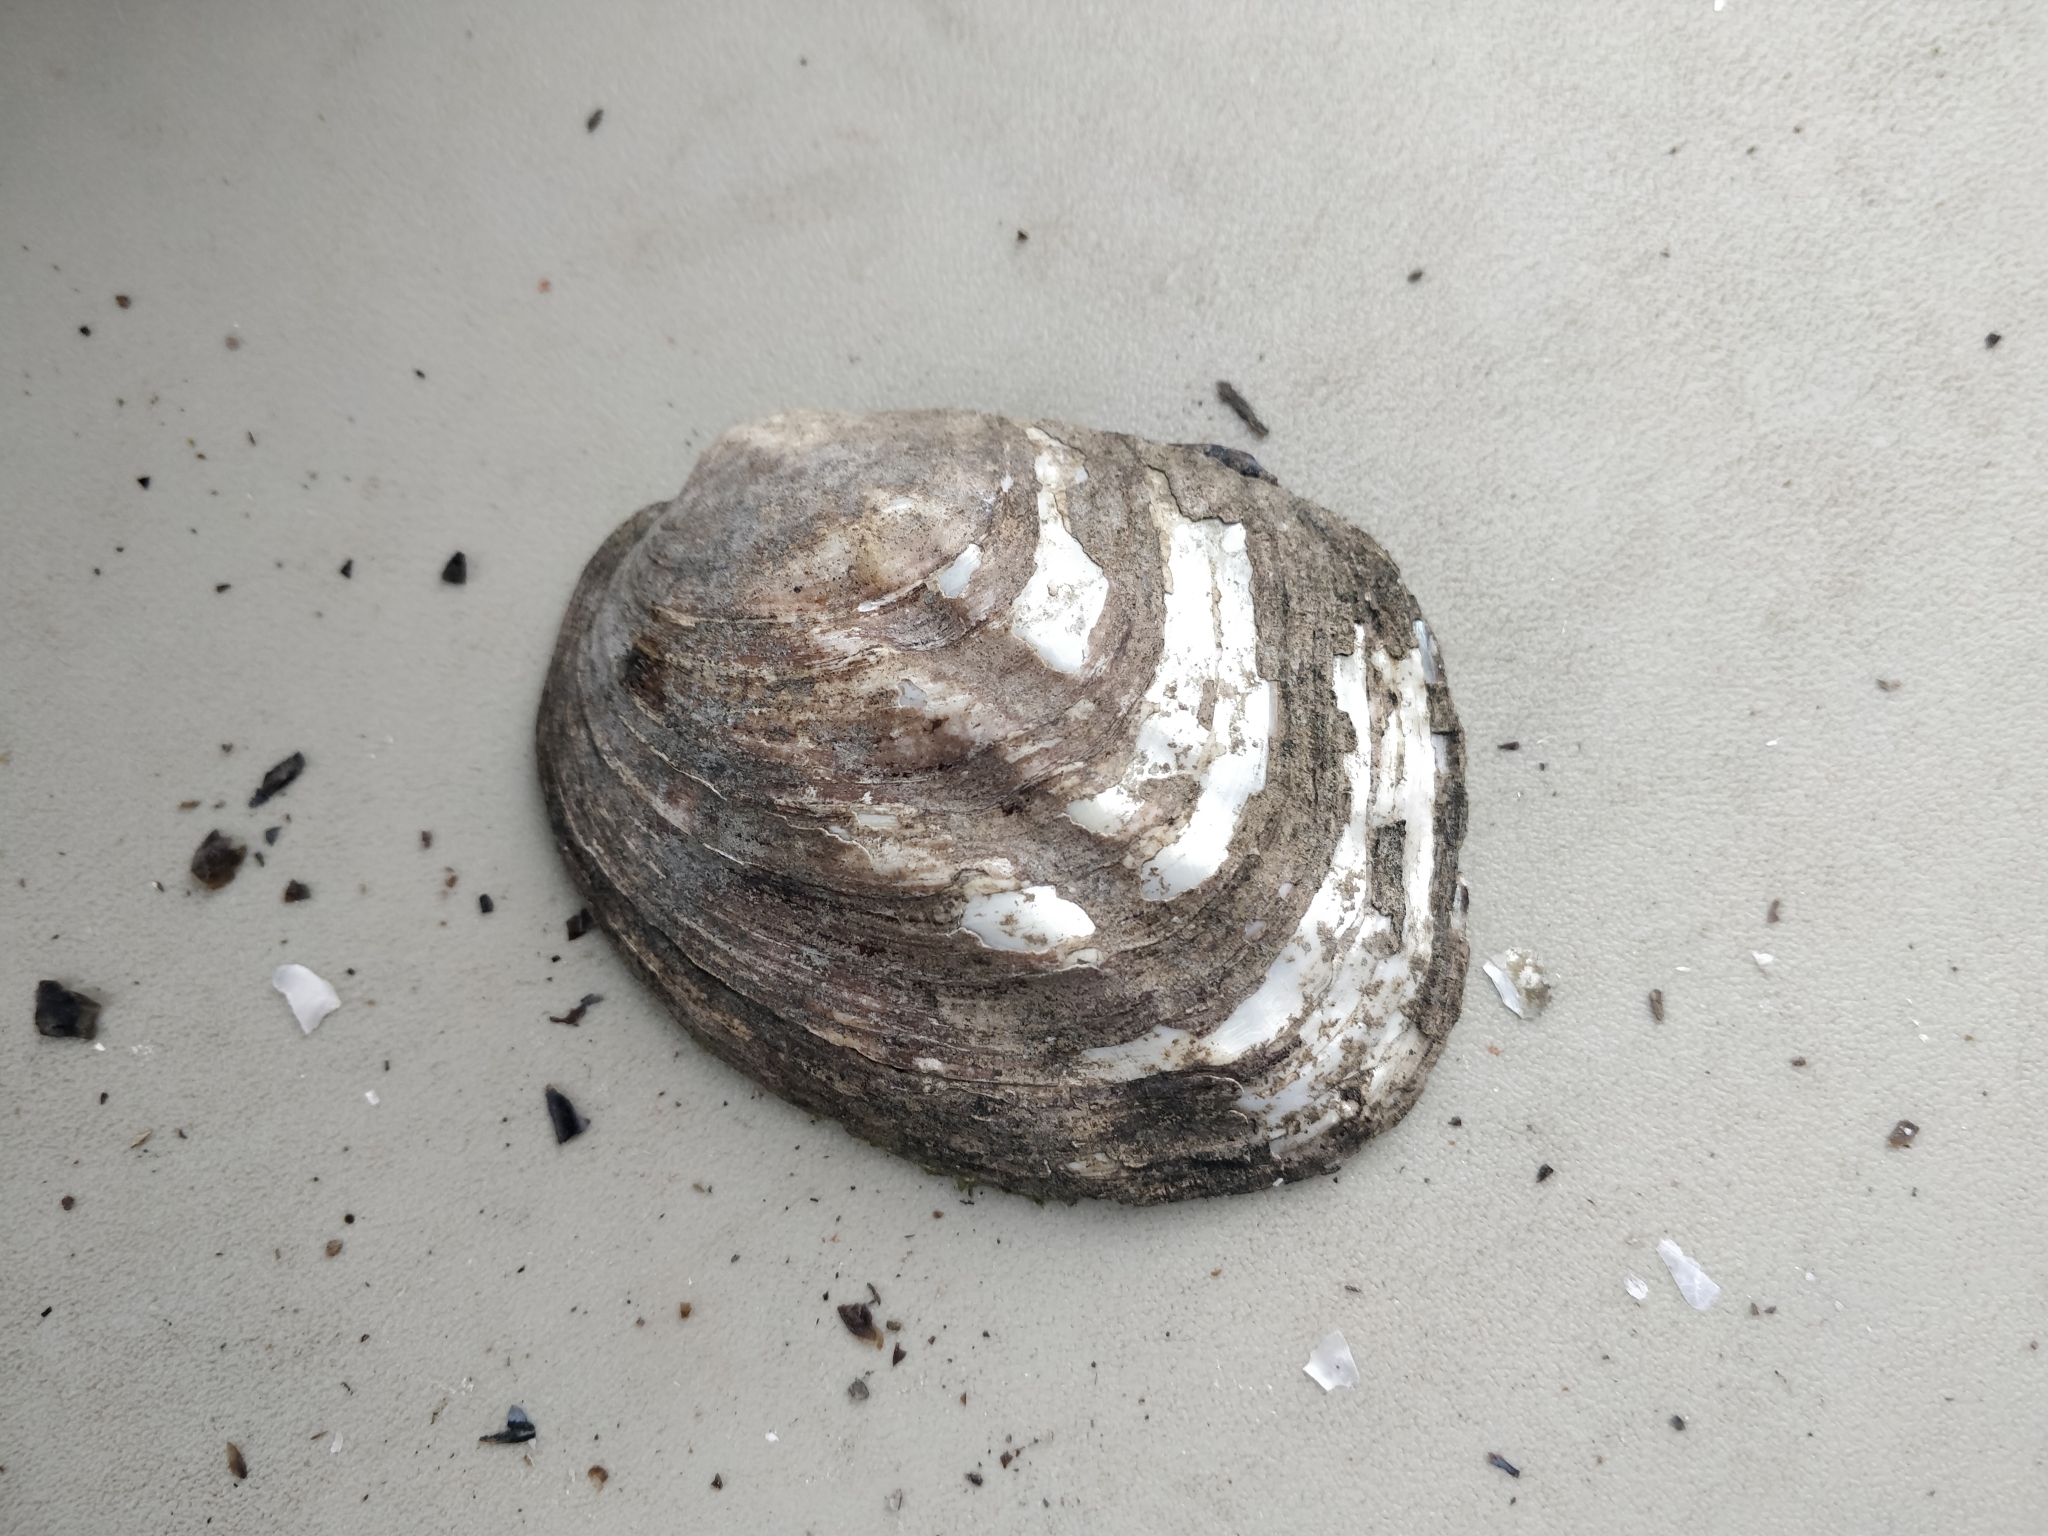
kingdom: Animalia
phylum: Mollusca
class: Bivalvia
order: Unionida
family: Unionidae
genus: Amblema
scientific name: Amblema plicata
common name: Threeridge
